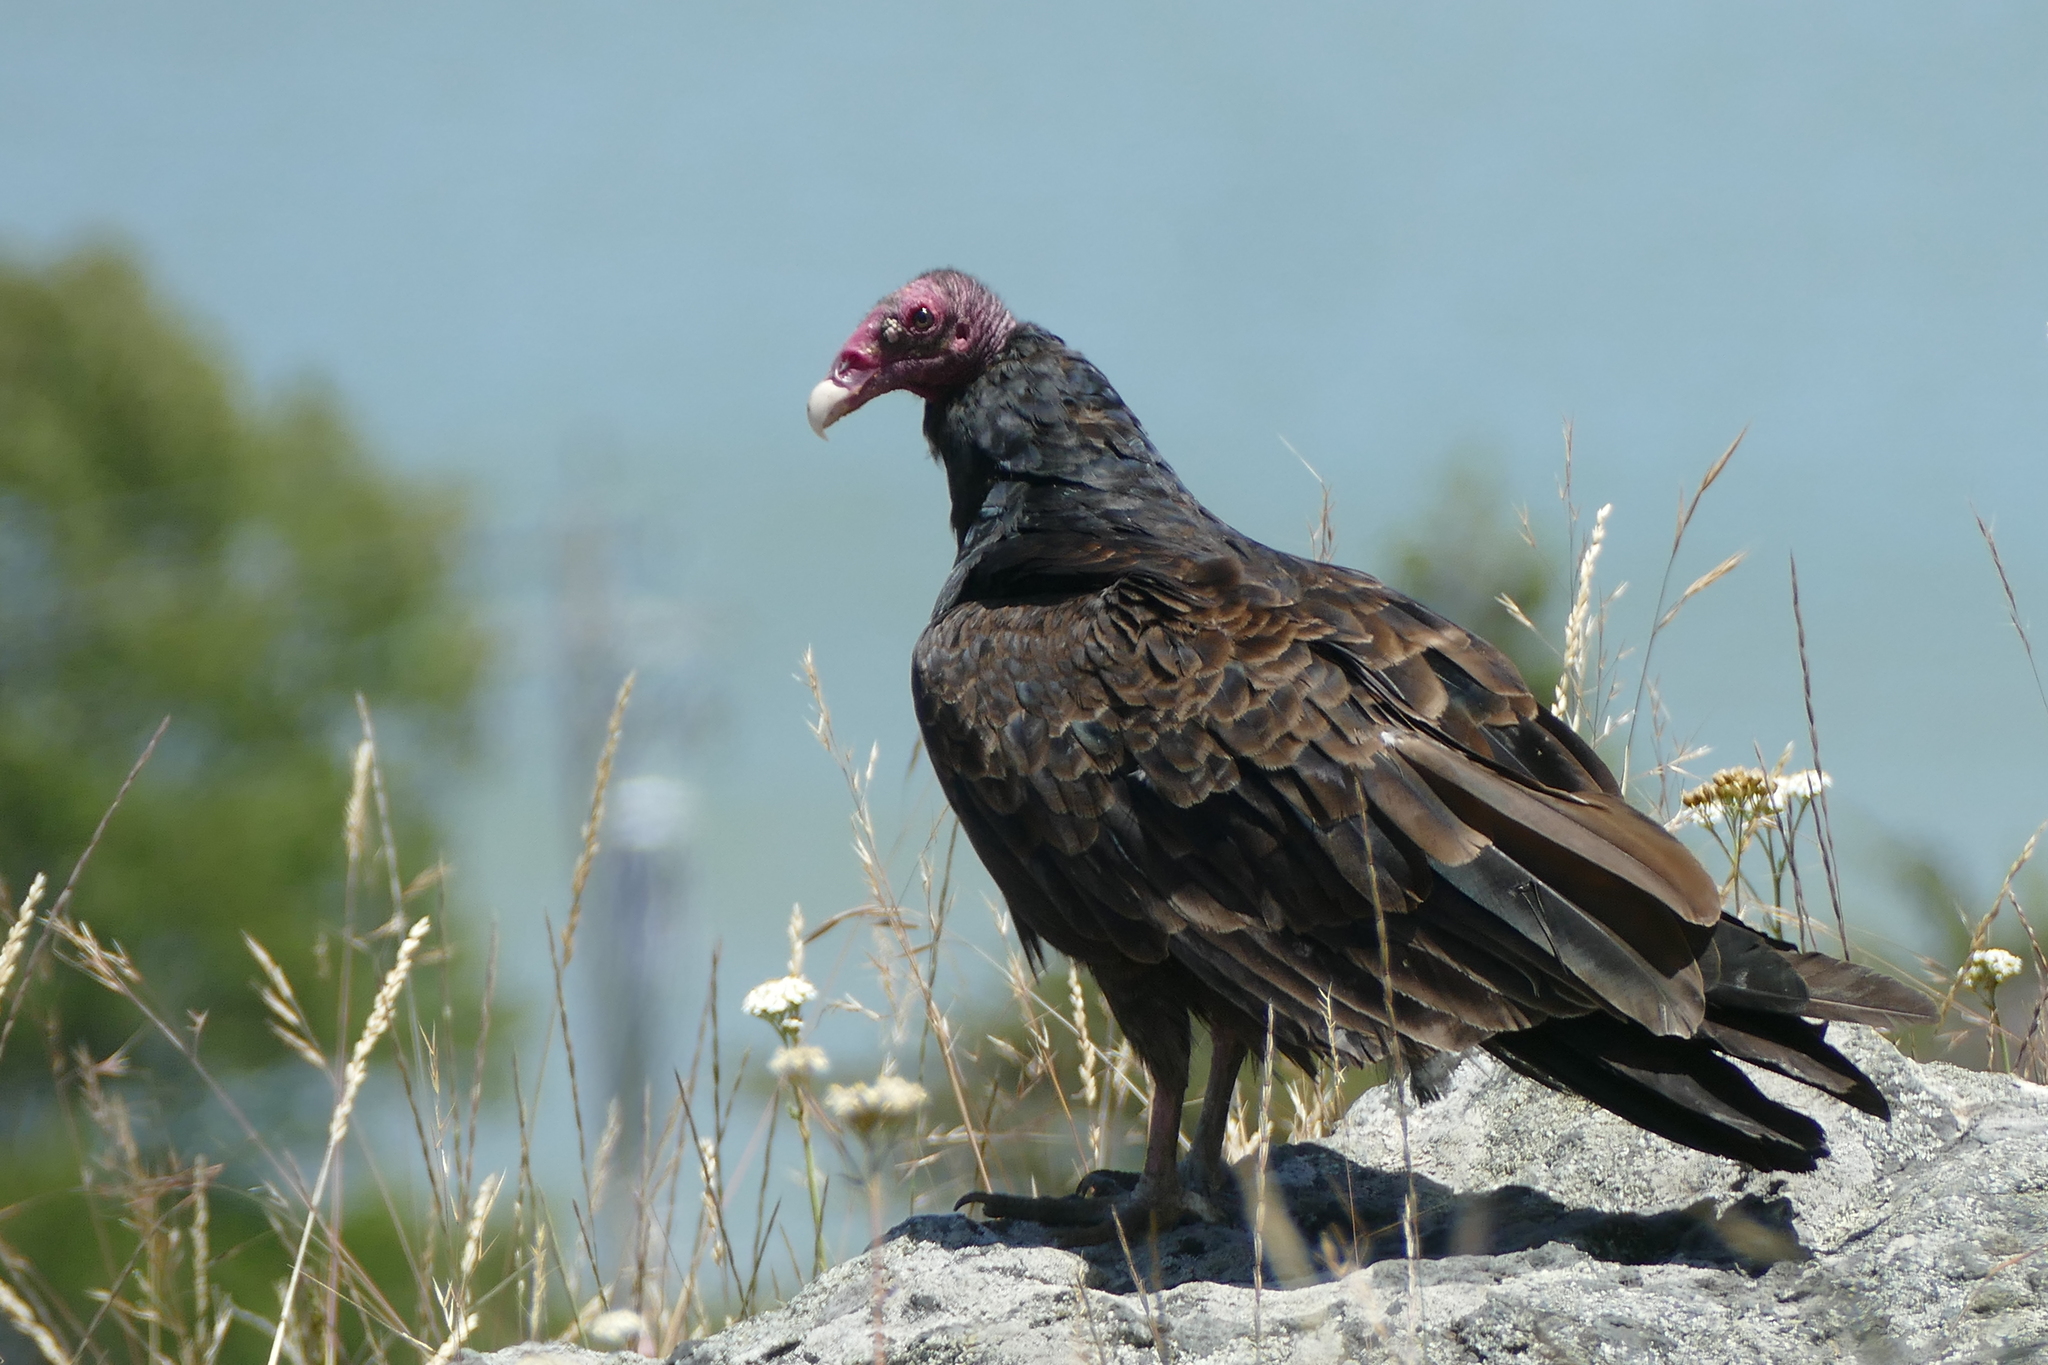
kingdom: Animalia
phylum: Chordata
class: Aves
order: Accipitriformes
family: Cathartidae
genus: Cathartes
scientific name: Cathartes aura
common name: Turkey vulture
